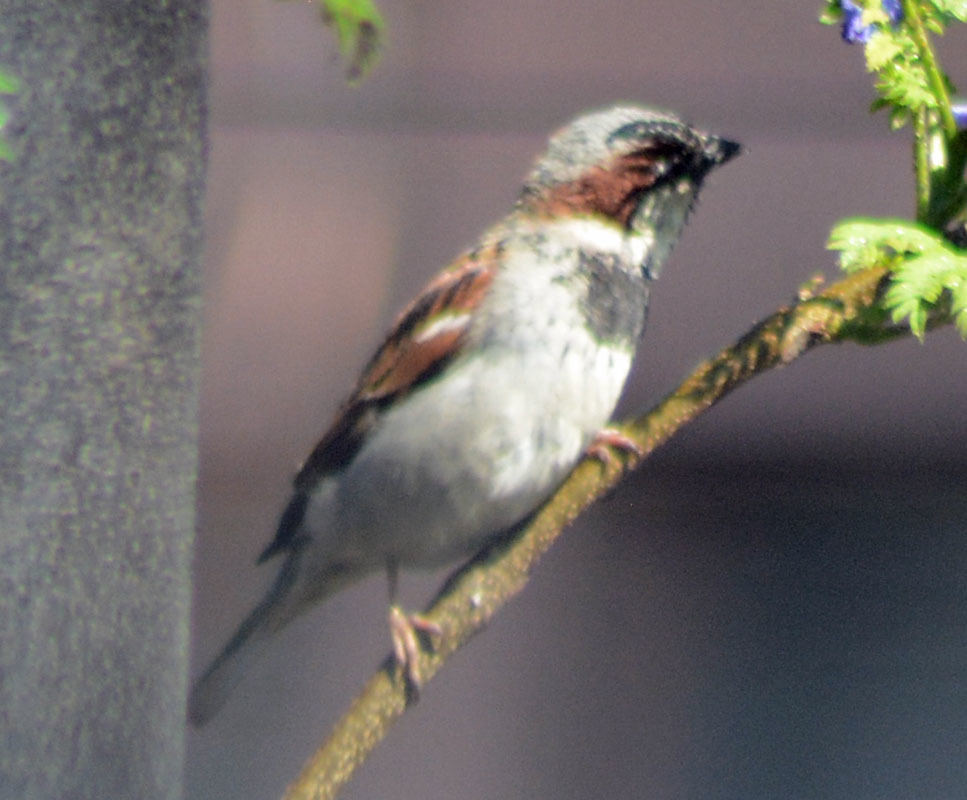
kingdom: Animalia
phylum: Chordata
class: Aves
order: Passeriformes
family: Passeridae
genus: Passer
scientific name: Passer domesticus
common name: House sparrow
